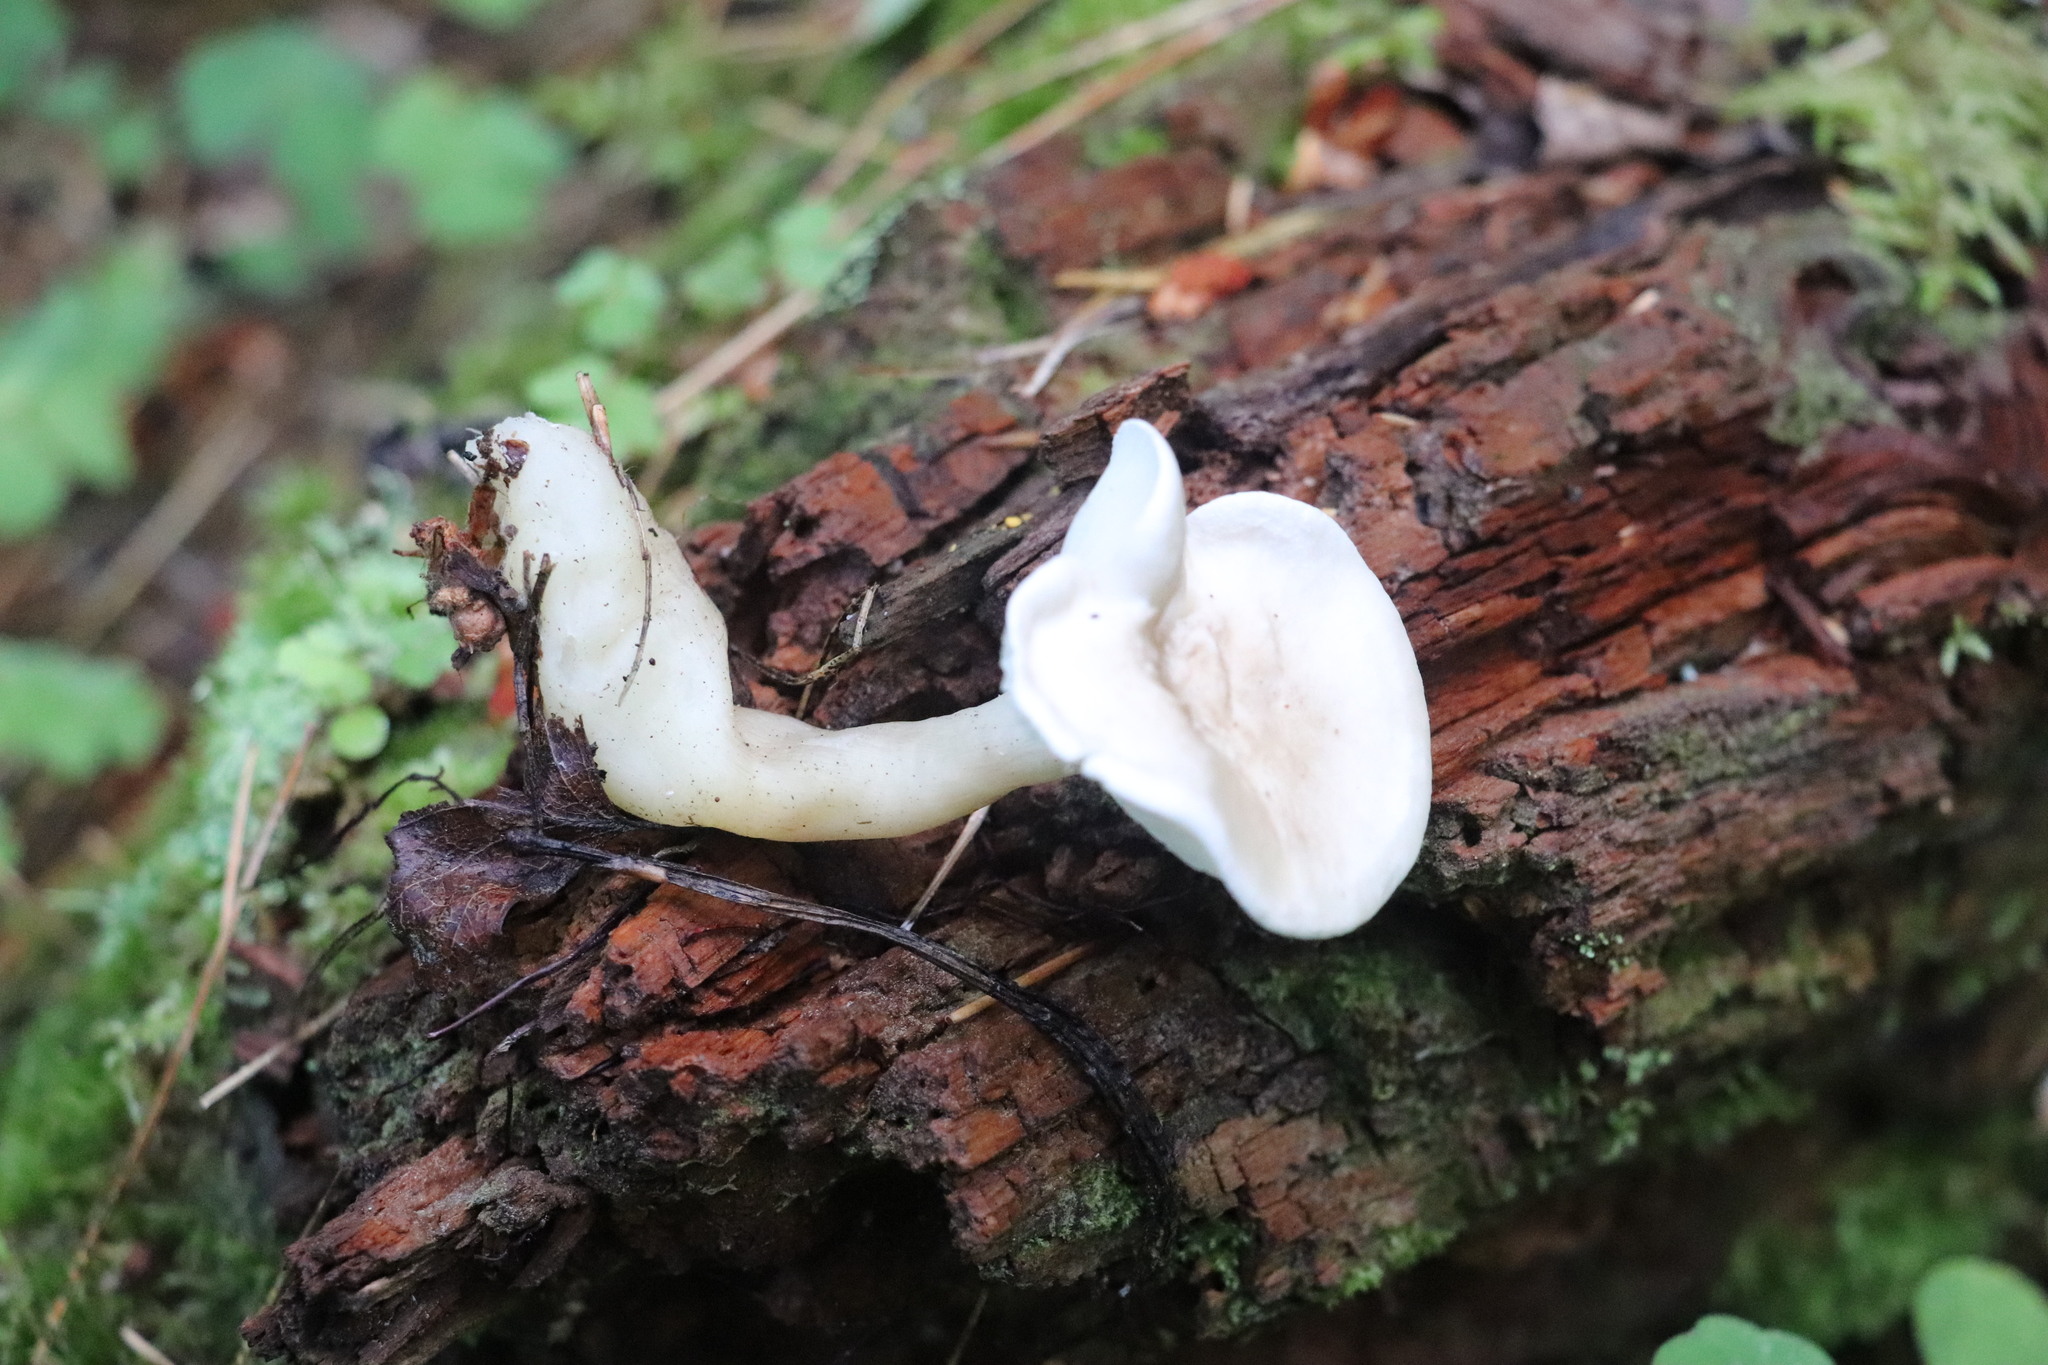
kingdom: Fungi
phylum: Basidiomycota
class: Agaricomycetes
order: Agaricales
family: Hygrophoraceae
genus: Ampulloclitocybe
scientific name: Ampulloclitocybe clavipes
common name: Club foot
